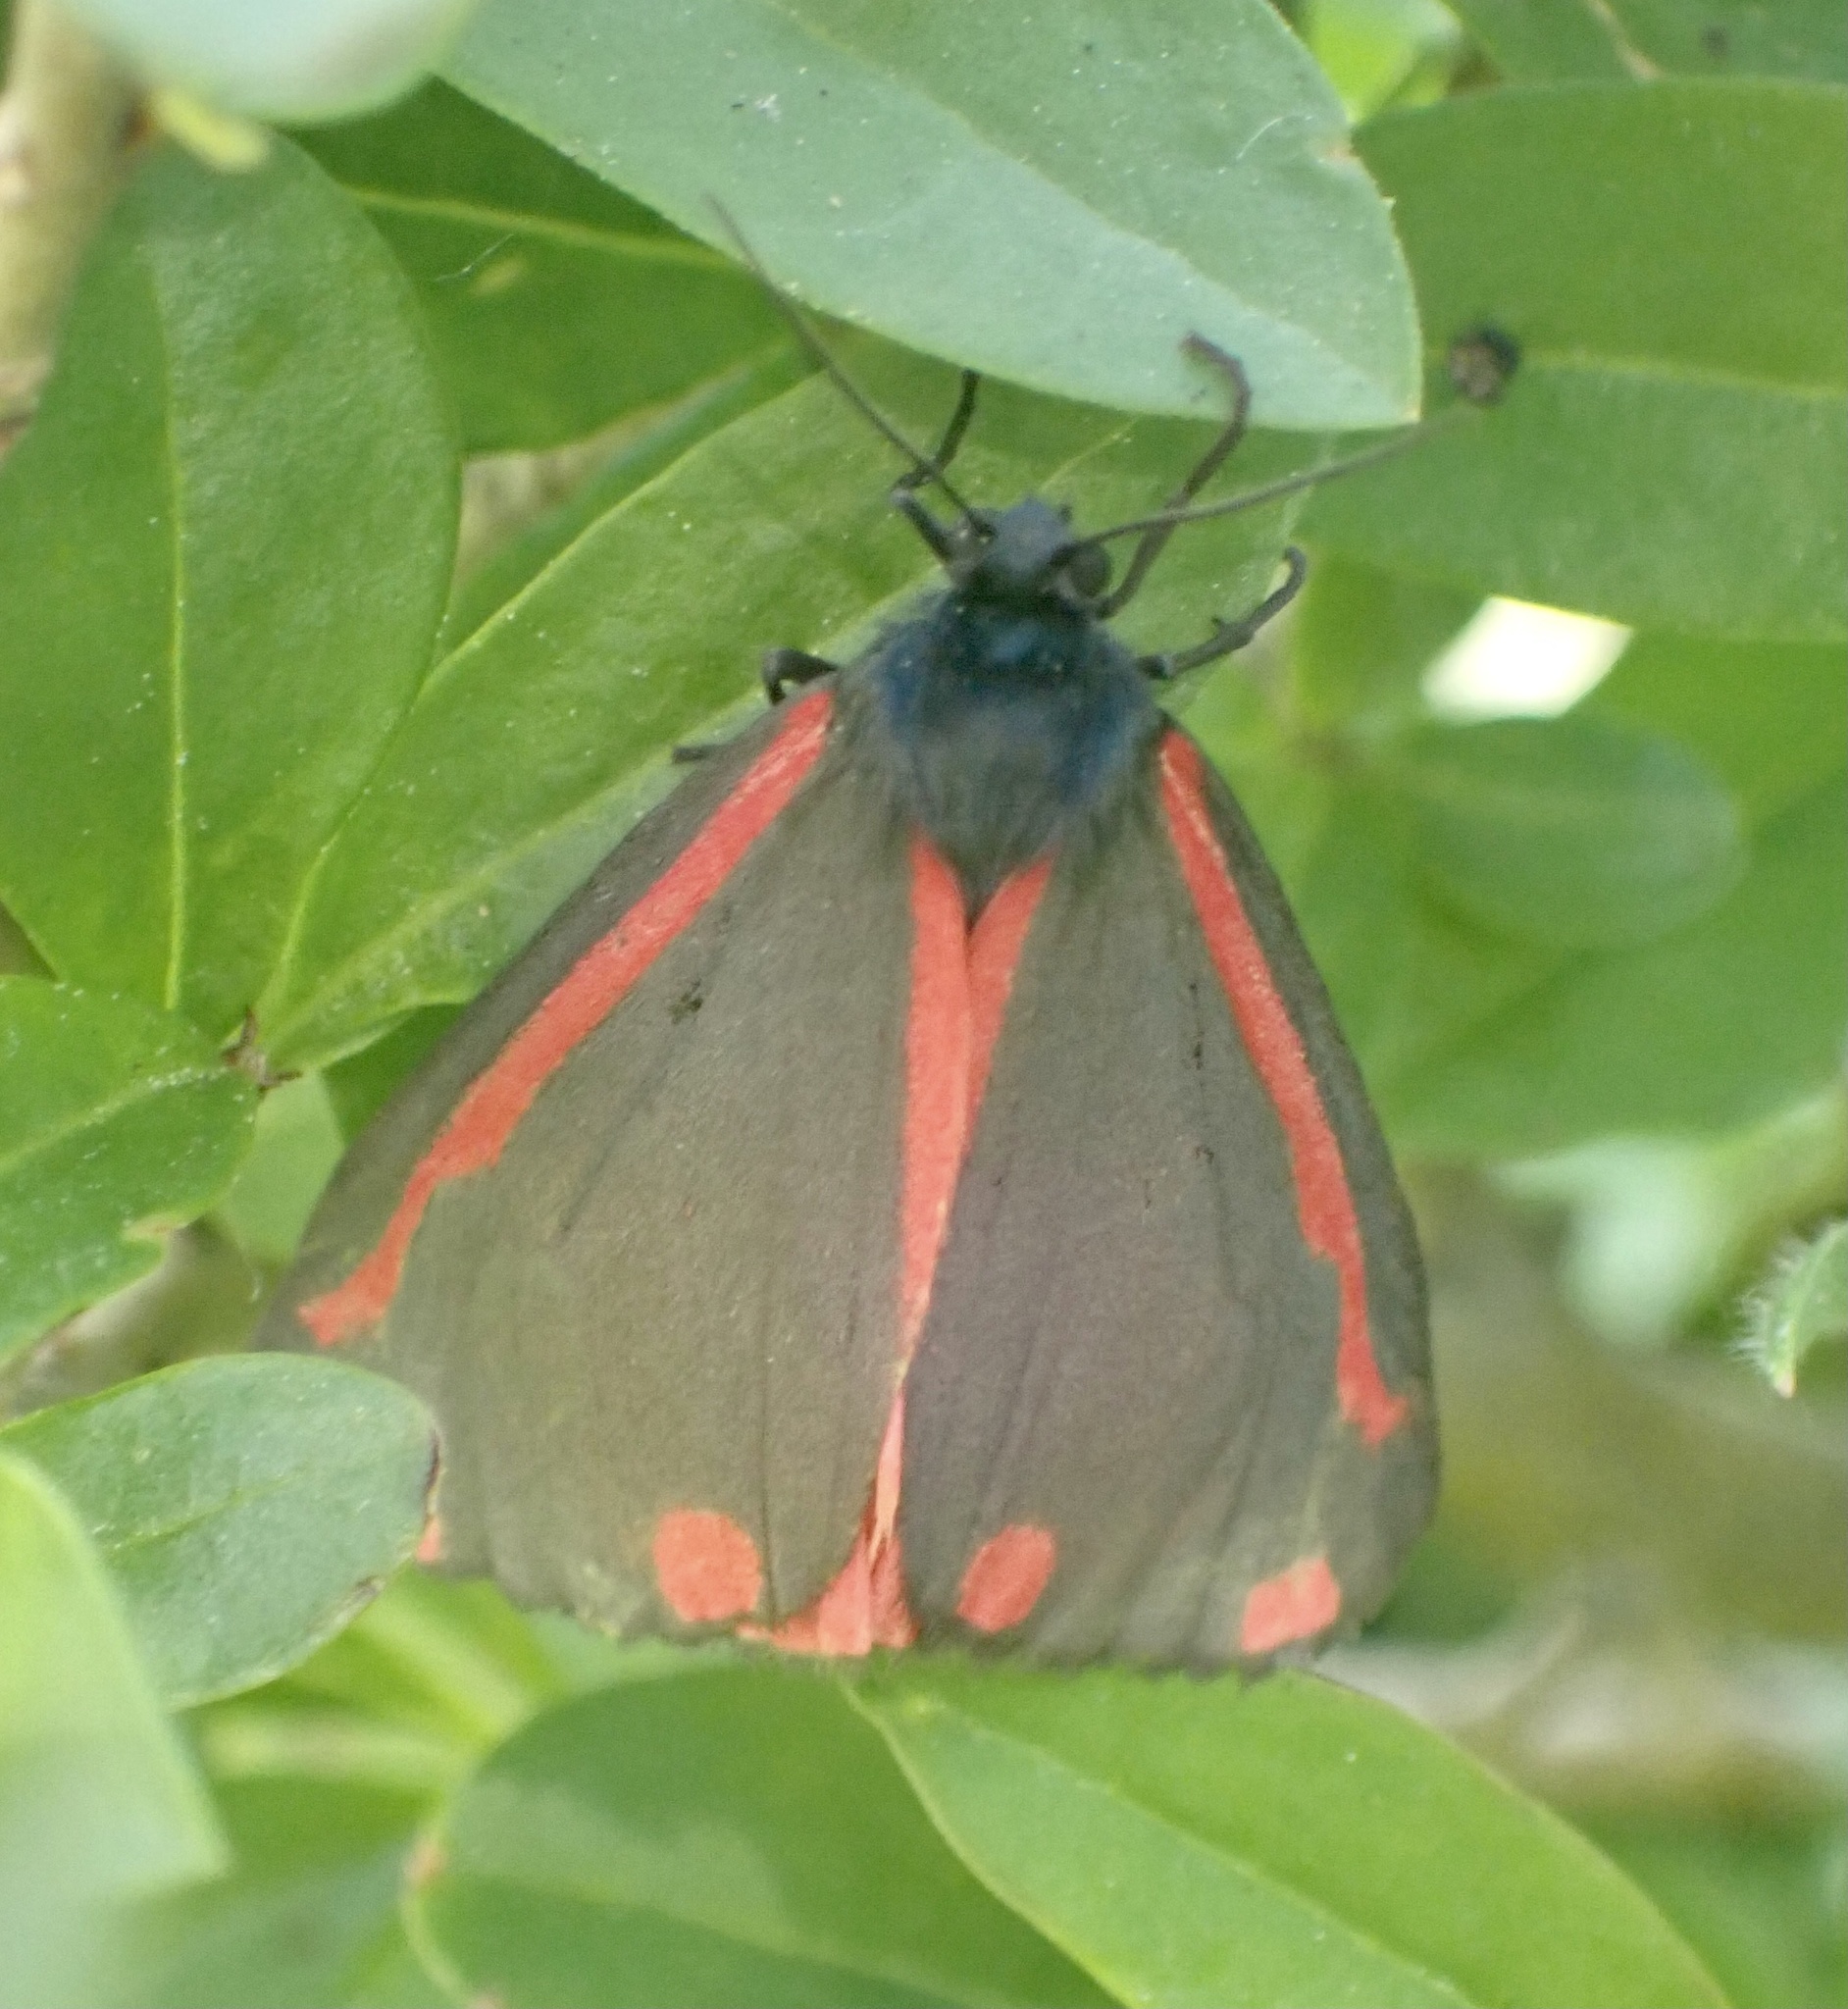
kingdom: Animalia
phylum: Arthropoda
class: Insecta
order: Lepidoptera
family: Erebidae
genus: Tyria
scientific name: Tyria jacobaeae
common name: Cinnabar
